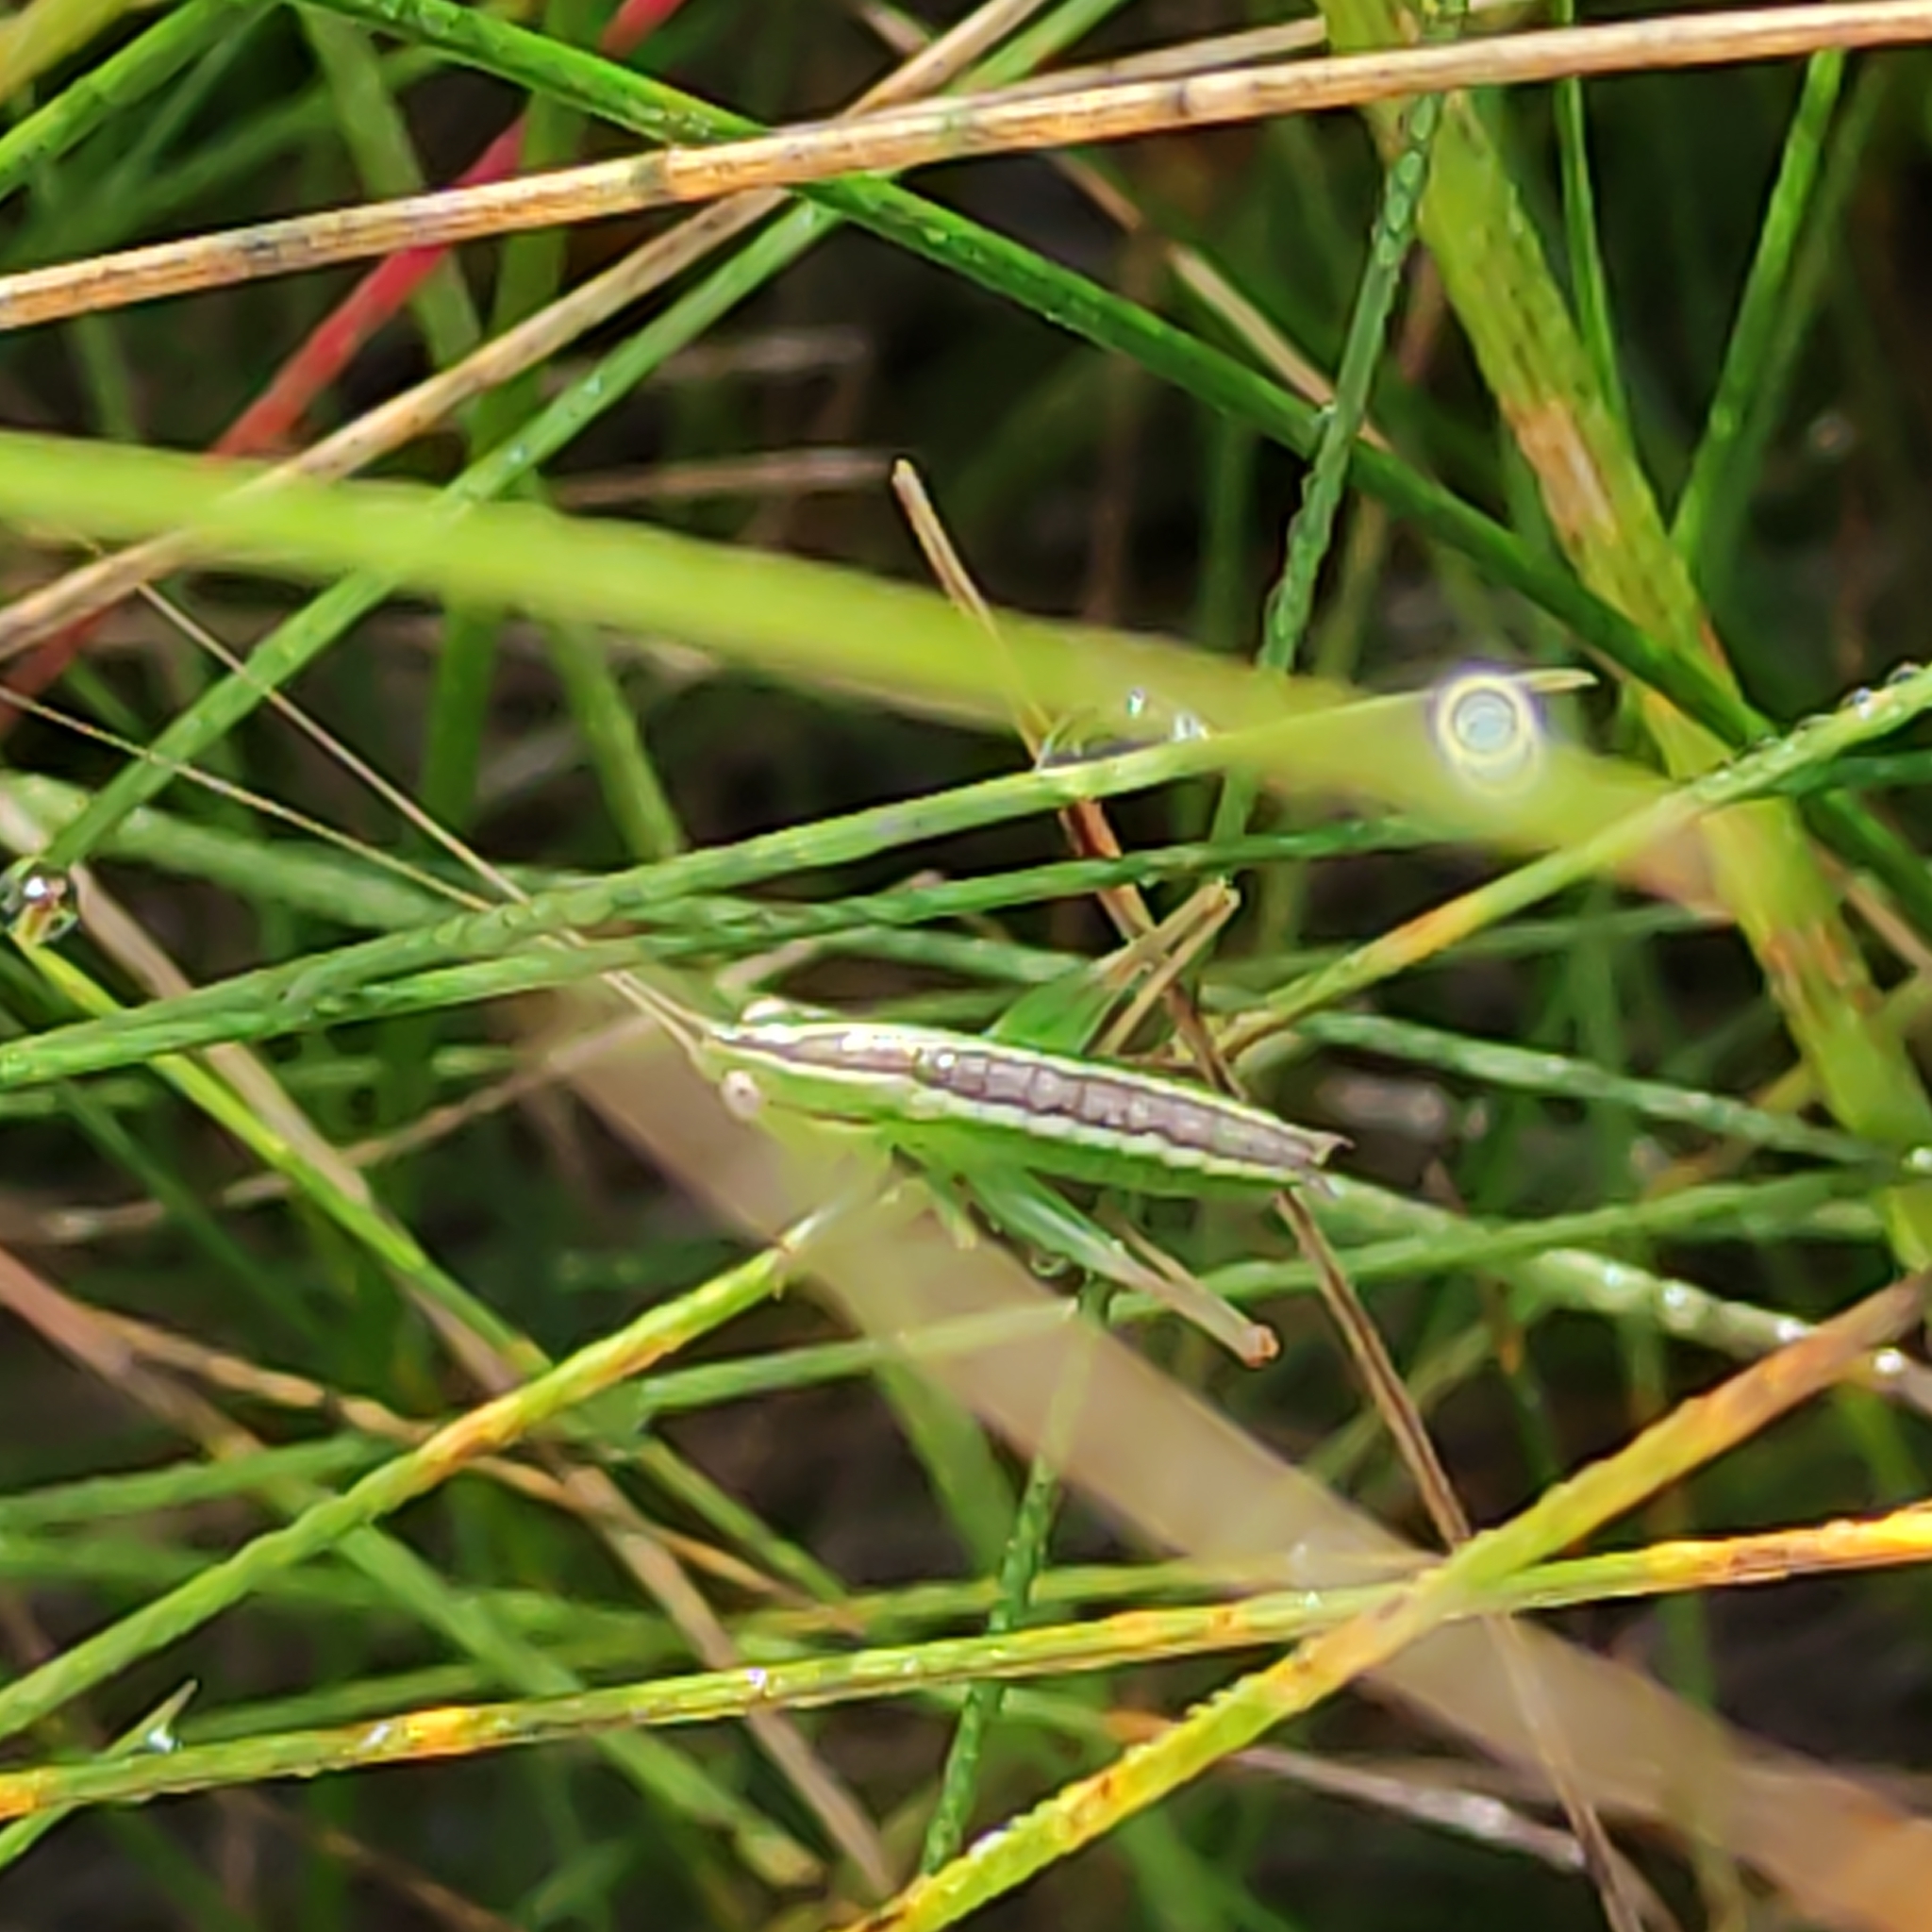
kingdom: Animalia
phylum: Arthropoda
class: Insecta
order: Orthoptera
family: Tettigoniidae
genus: Conocephalus
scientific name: Conocephalus bilineatus
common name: Small meadow katydid
